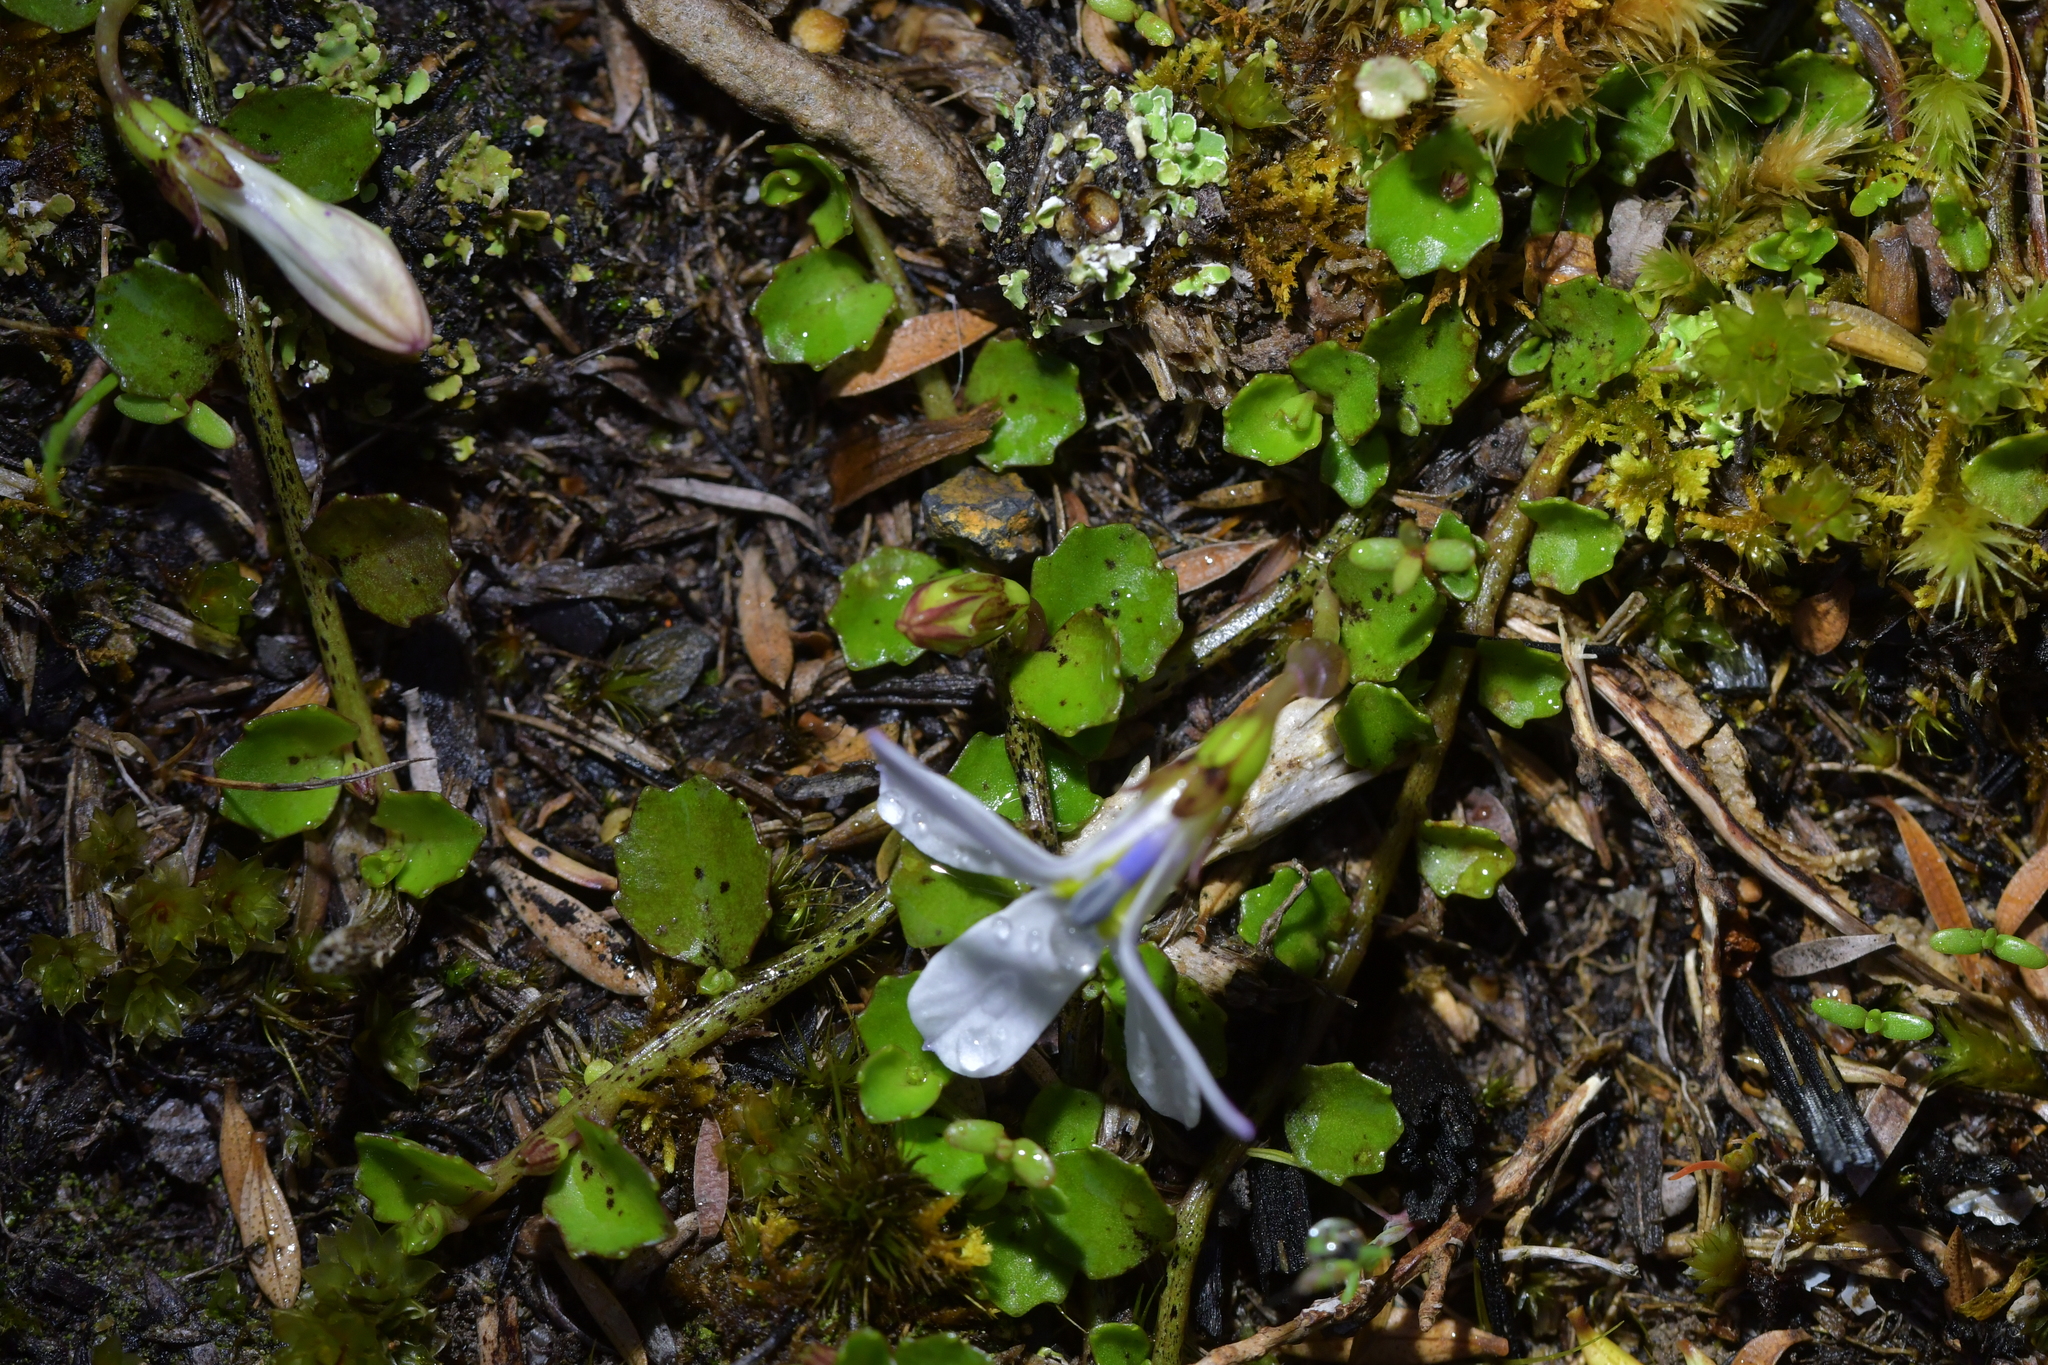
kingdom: Plantae
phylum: Tracheophyta
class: Magnoliopsida
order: Asterales
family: Campanulaceae
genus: Lobelia
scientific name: Lobelia angulata
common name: Lawn lobelia
